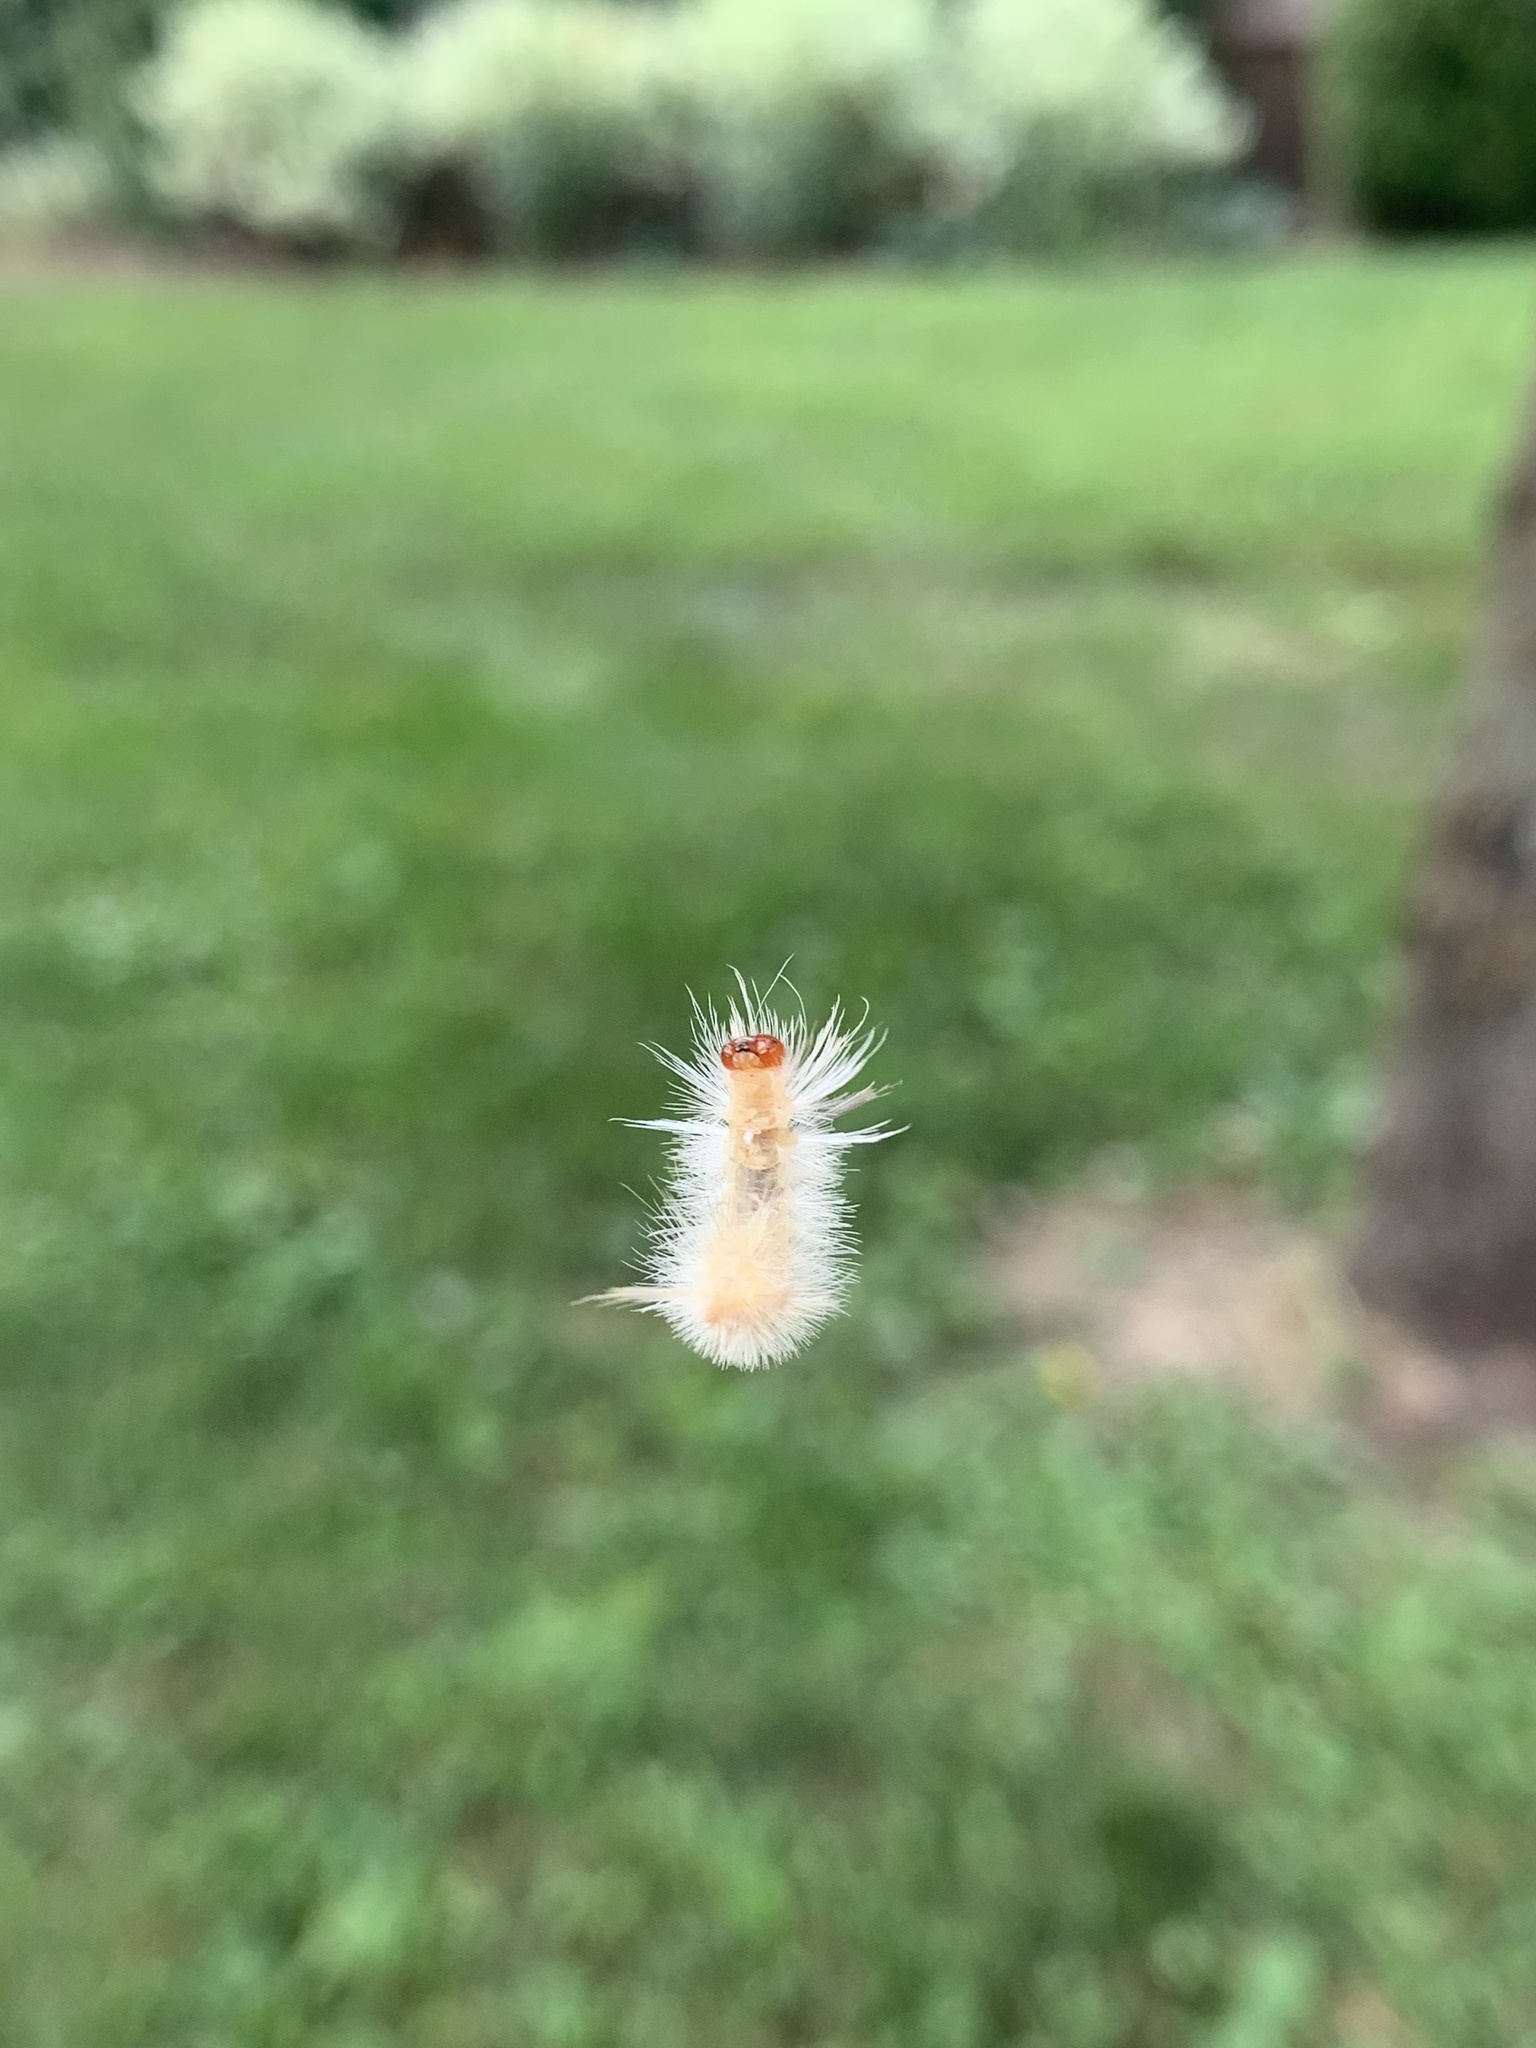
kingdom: Animalia
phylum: Arthropoda
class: Insecta
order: Lepidoptera
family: Erebidae
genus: Halysidota
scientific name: Halysidota harrisii
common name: Sycamore tussock moth
